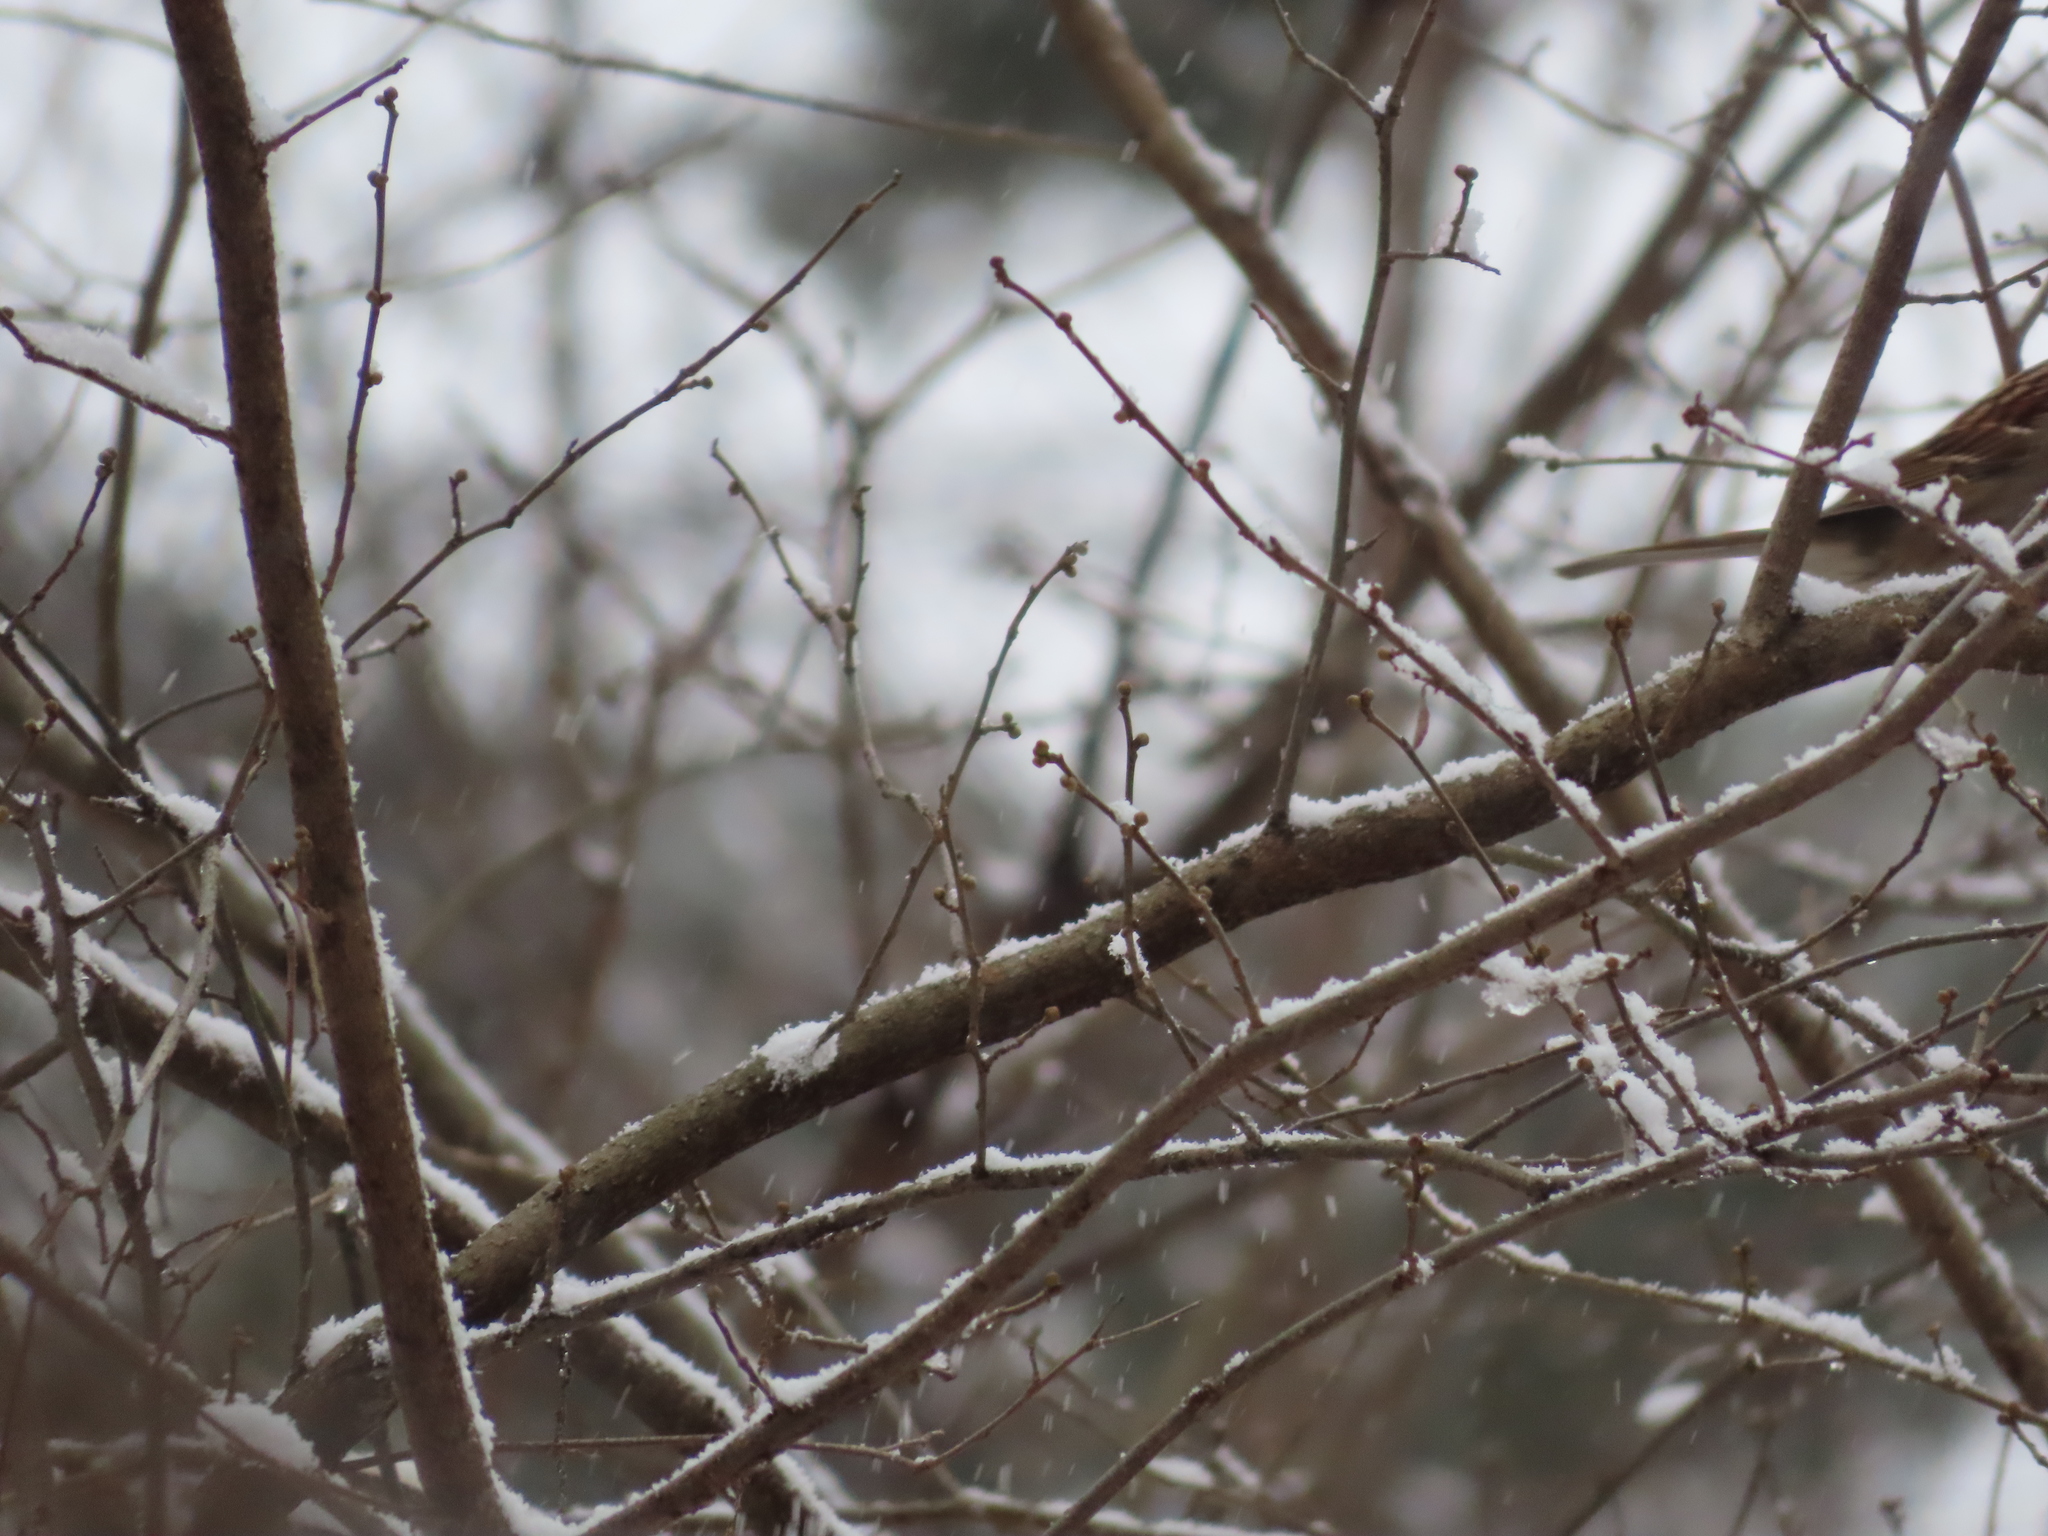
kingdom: Animalia
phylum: Chordata
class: Aves
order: Passeriformes
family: Passerellidae
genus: Zonotrichia
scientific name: Zonotrichia albicollis
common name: White-throated sparrow
